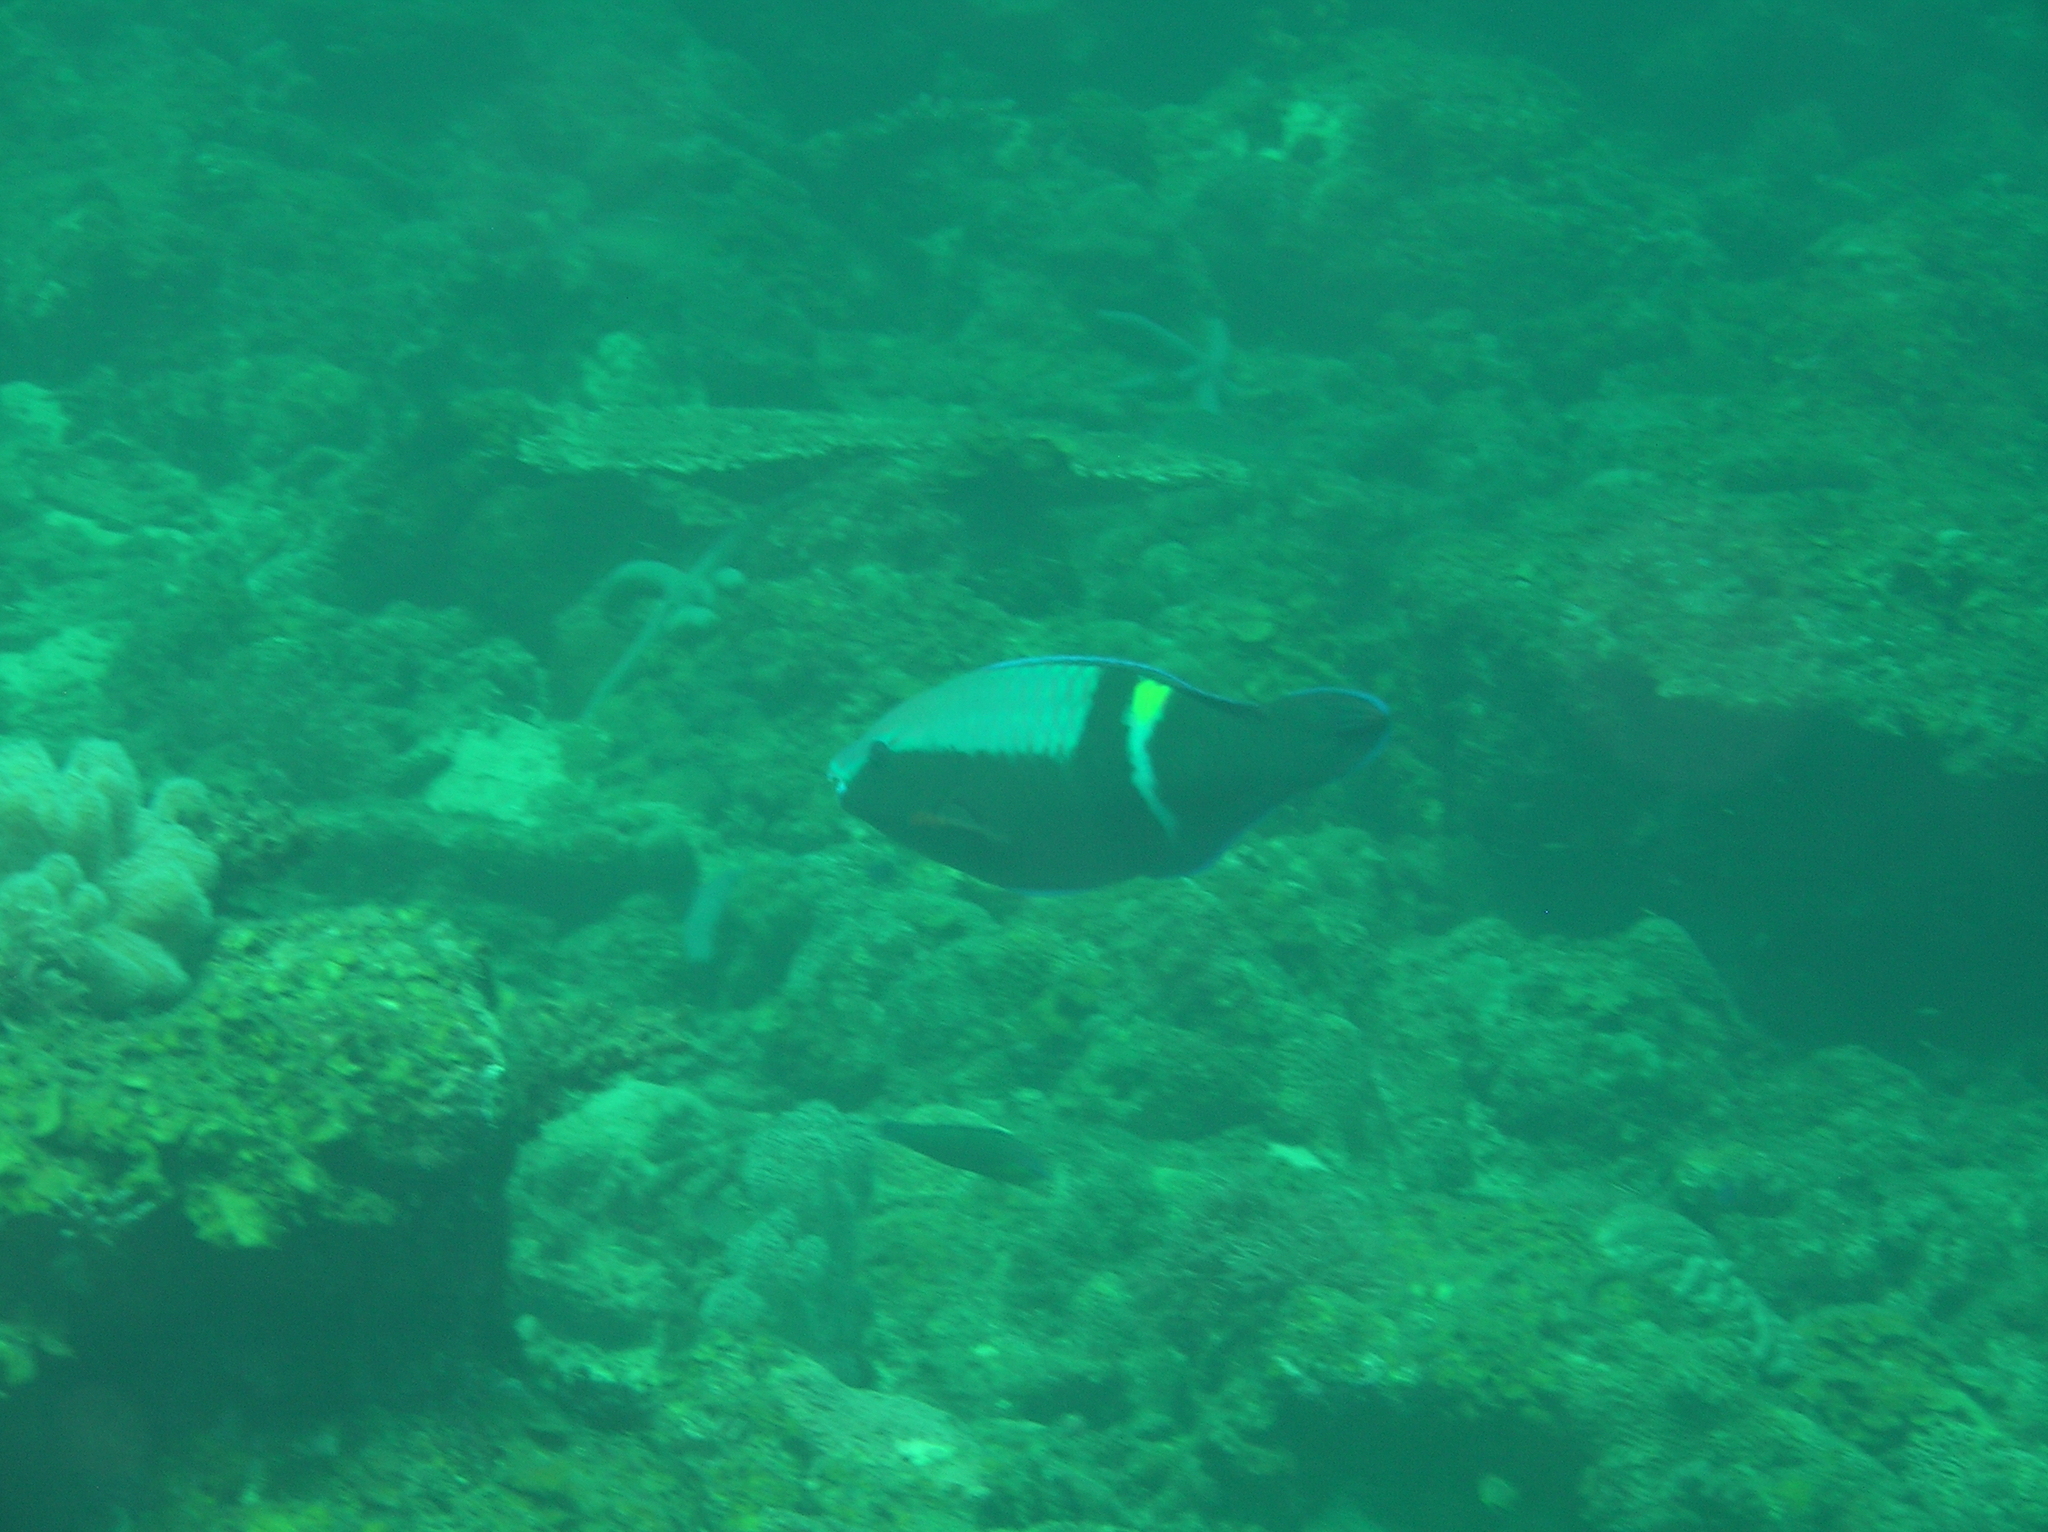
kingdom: Animalia
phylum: Chordata
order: Perciformes
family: Scaridae
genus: Scarus
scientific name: Scarus schlegeli
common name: Schlegel's parrotfish
